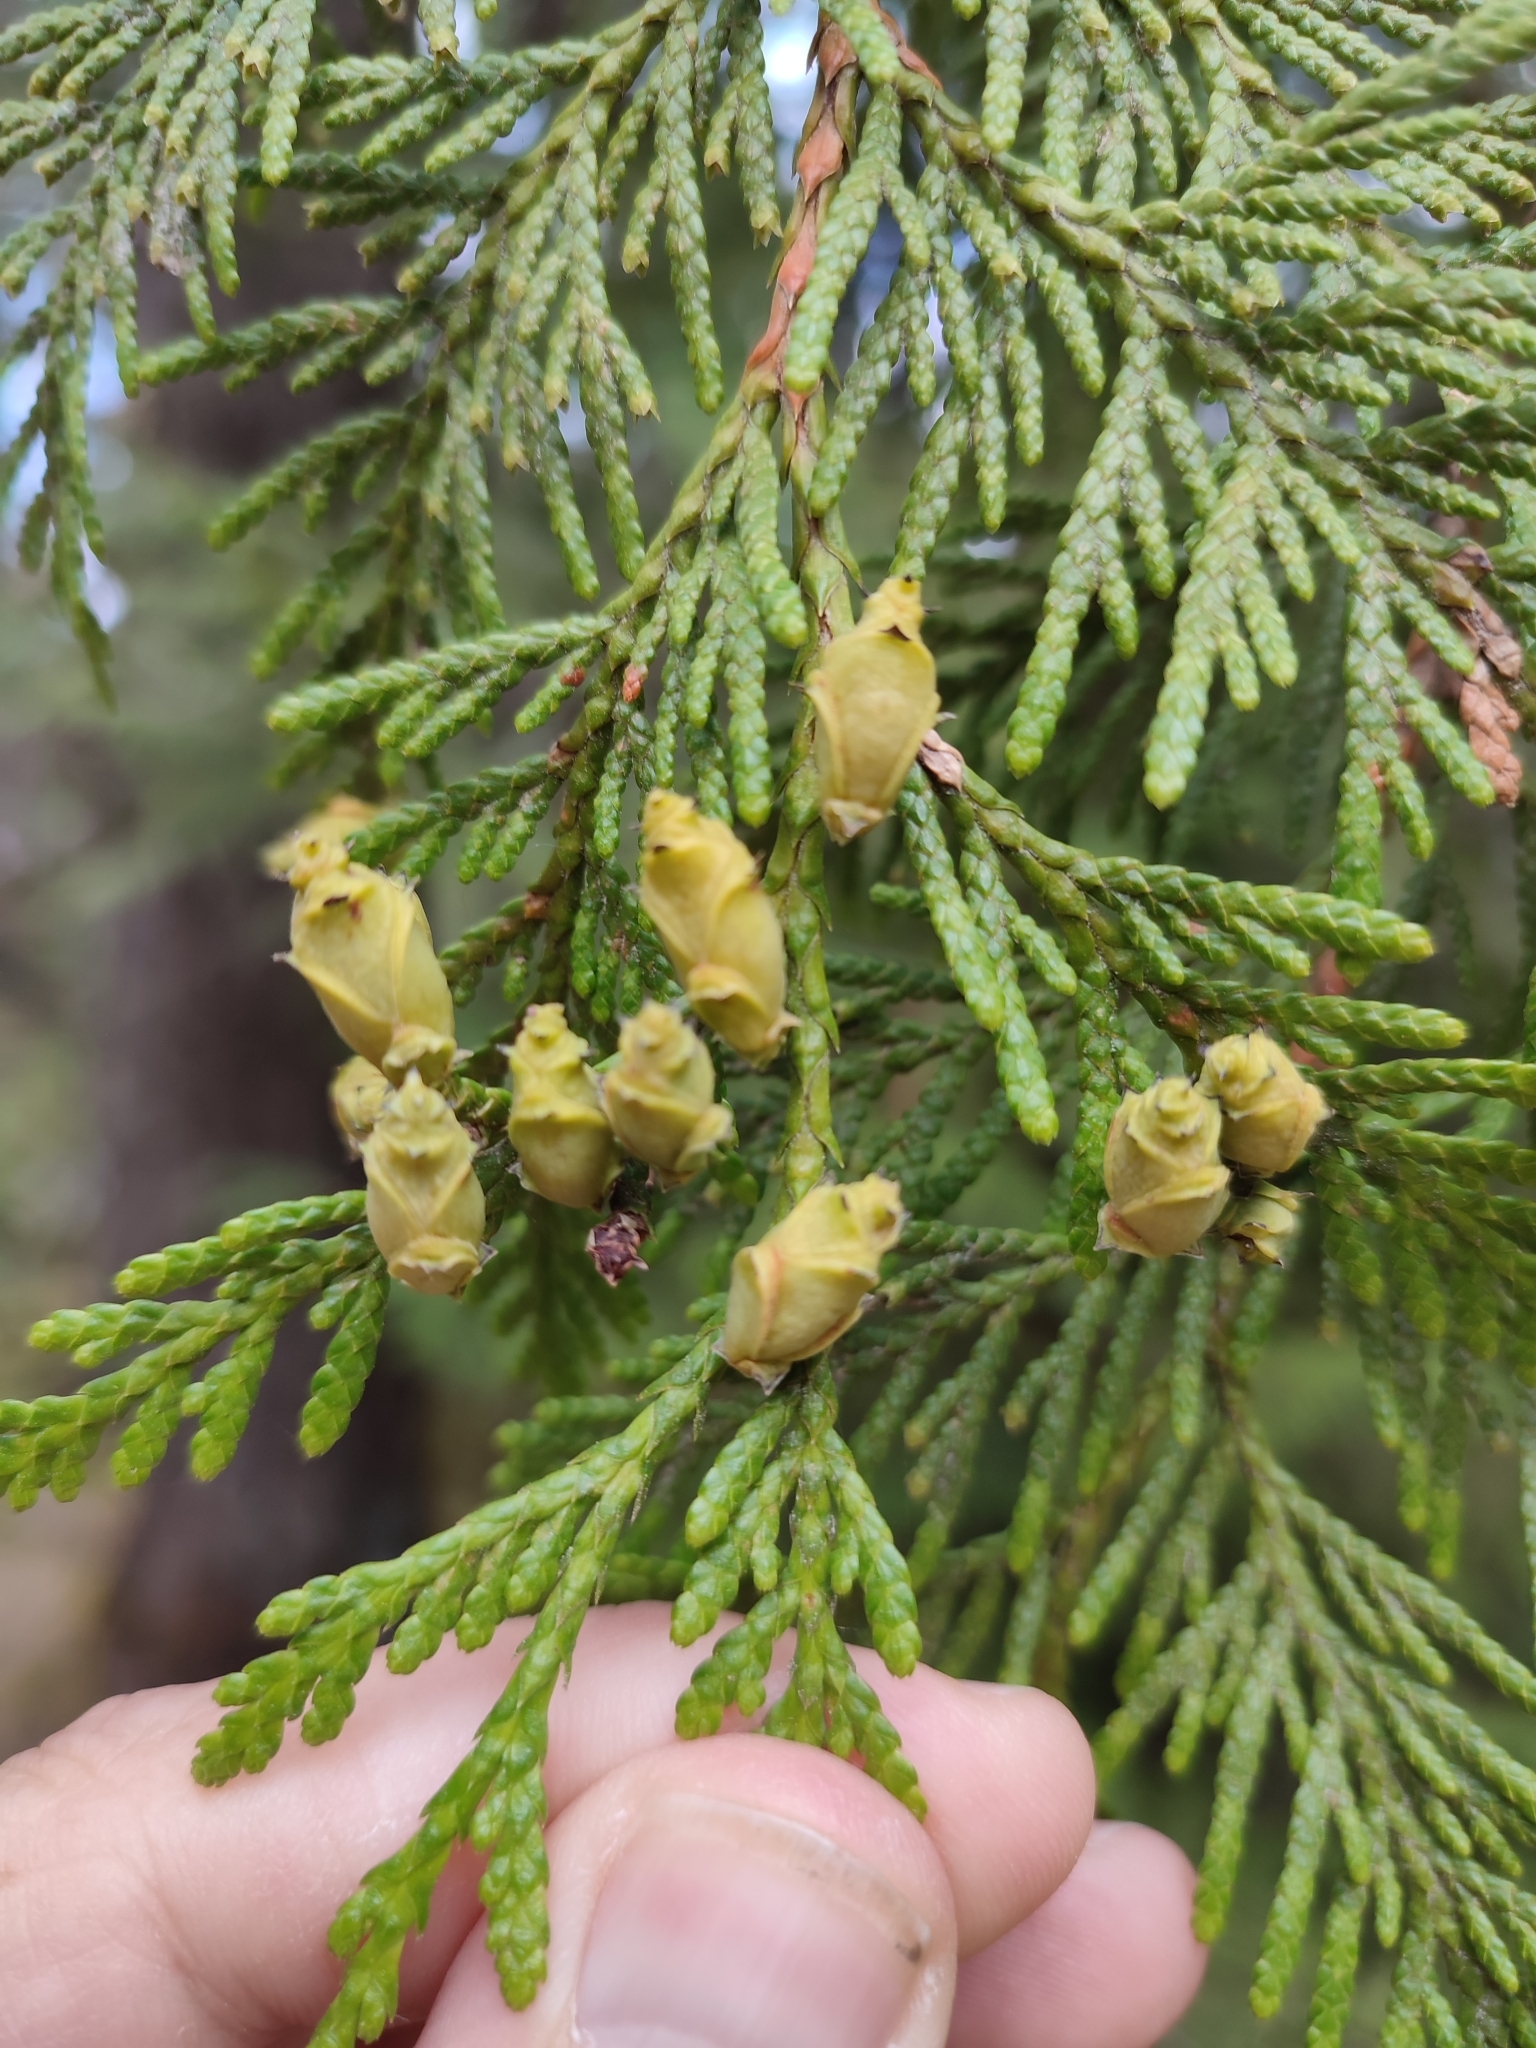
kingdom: Plantae
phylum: Tracheophyta
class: Pinopsida
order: Pinales
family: Cupressaceae
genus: Thuja
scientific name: Thuja plicata
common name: Western red-cedar
